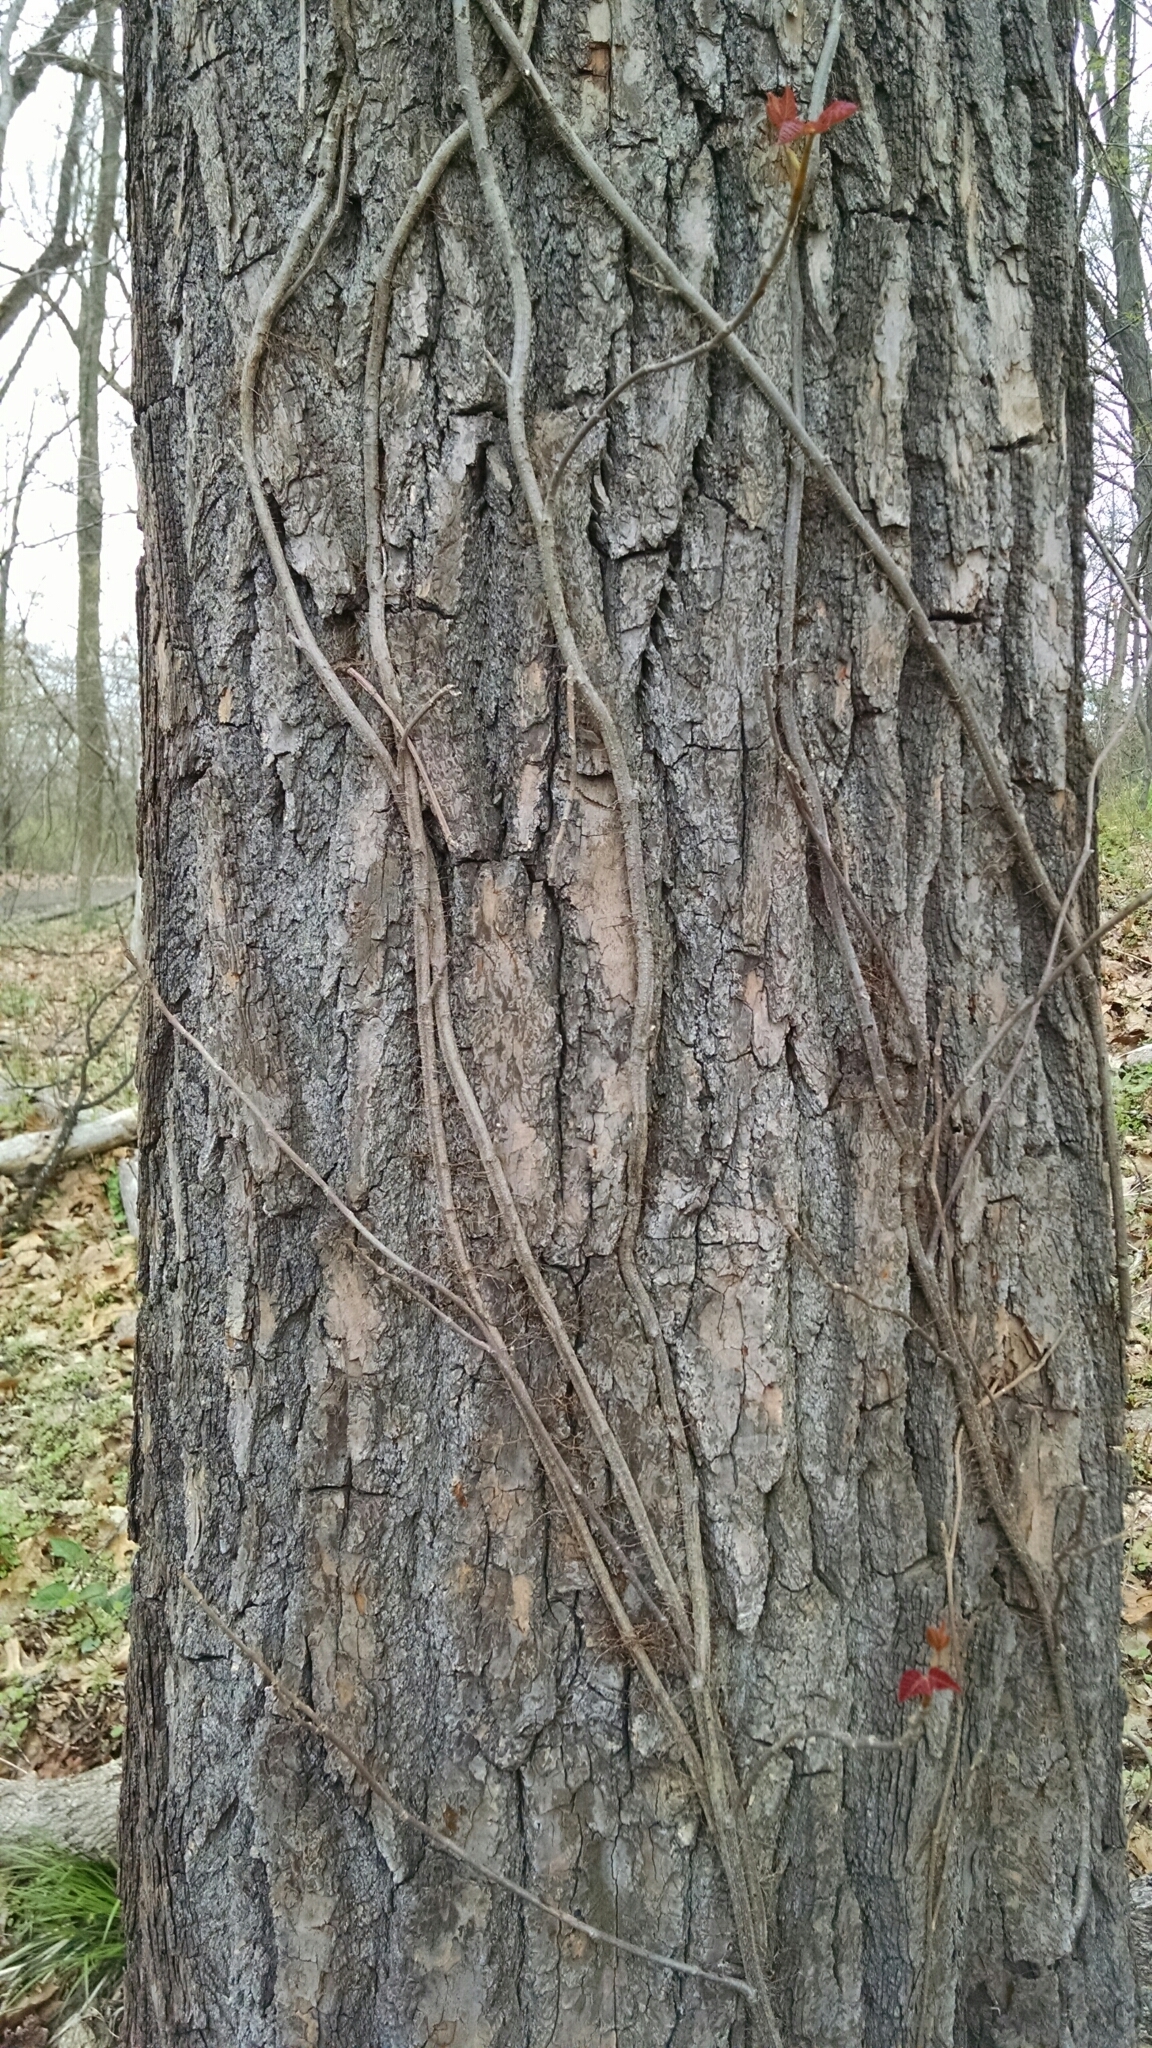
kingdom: Plantae
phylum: Tracheophyta
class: Magnoliopsida
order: Laurales
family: Lauraceae
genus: Sassafras
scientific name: Sassafras albidum
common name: Sassafras
